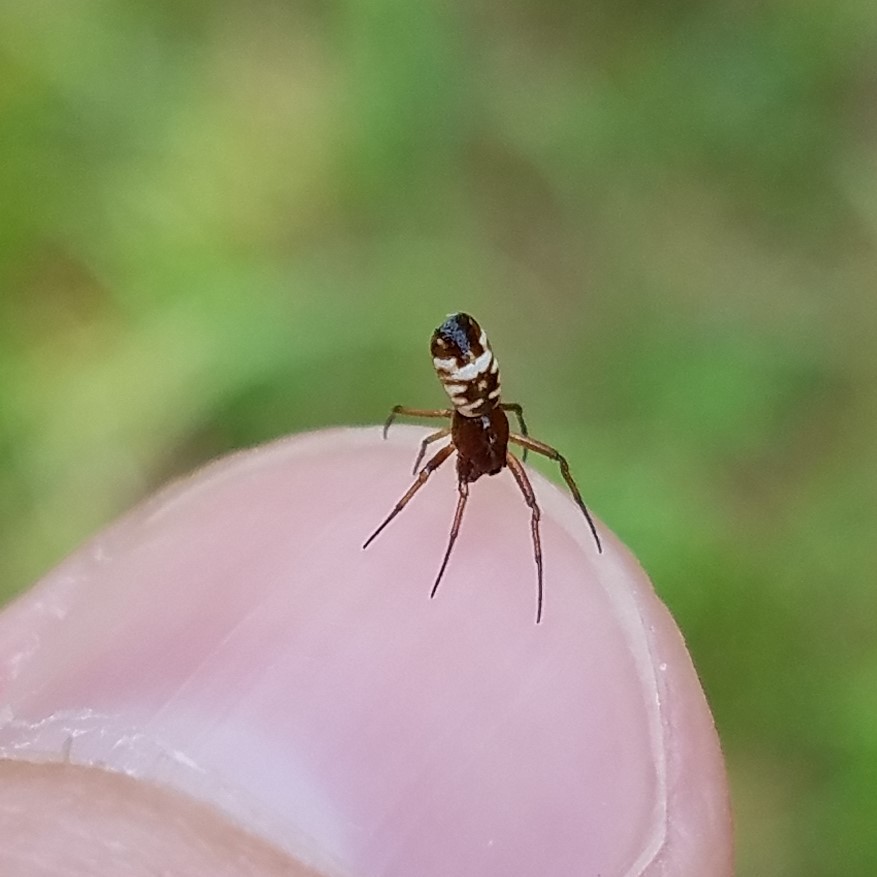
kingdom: Animalia
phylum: Arthropoda
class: Arachnida
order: Araneae
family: Araneidae
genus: Micrathena
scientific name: Micrathena mitrata
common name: Orb weavers
